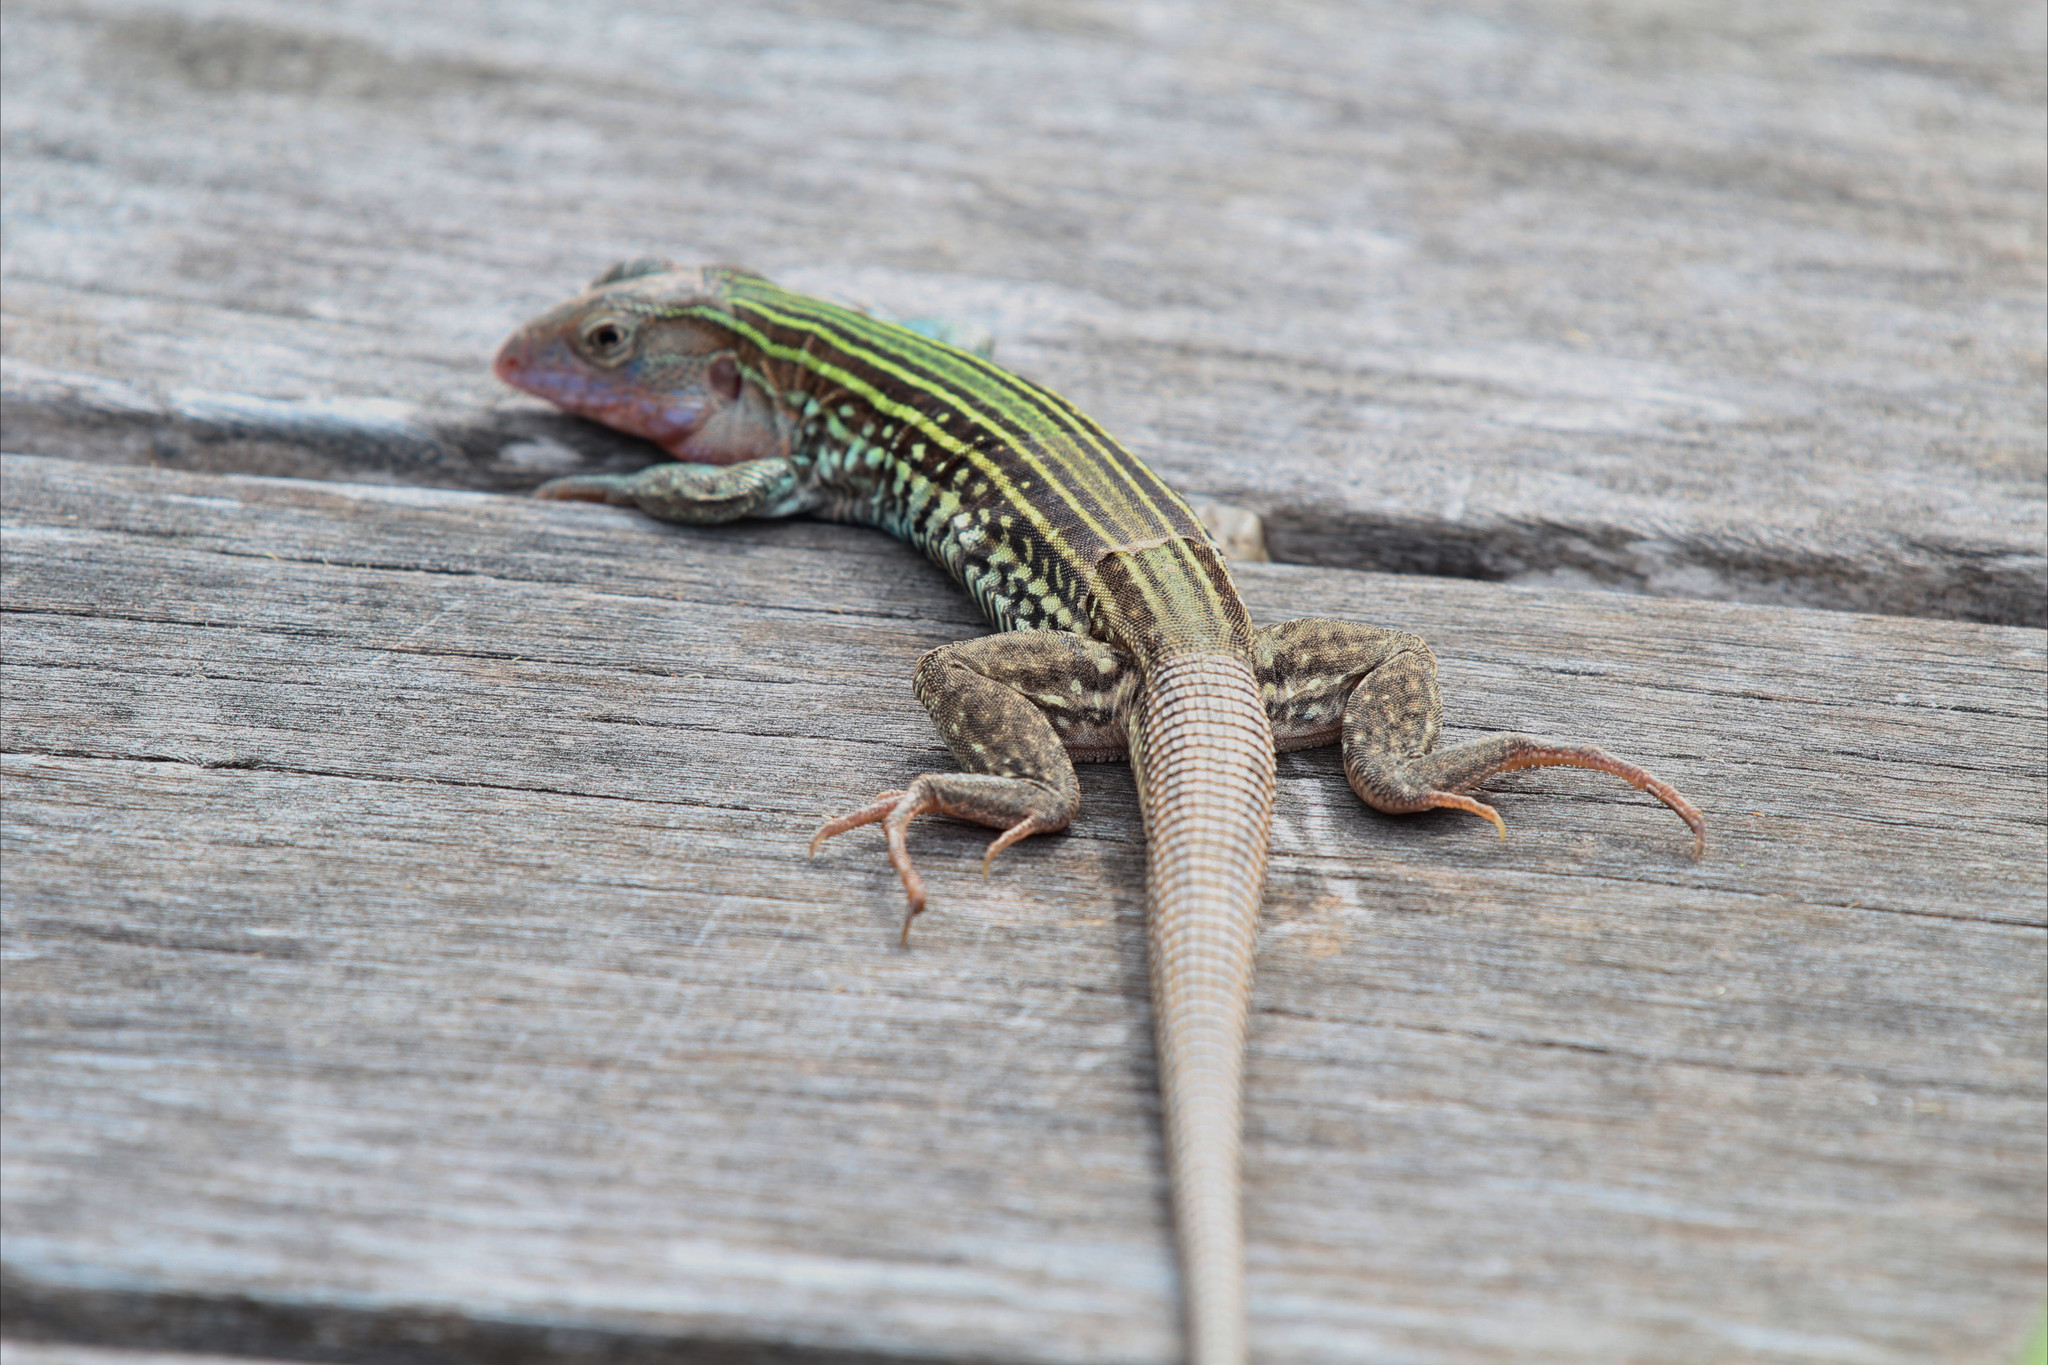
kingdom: Animalia
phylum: Chordata
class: Squamata
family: Teiidae
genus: Aspidoscelis
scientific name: Aspidoscelis gularis
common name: Eastern spotted whiptail
